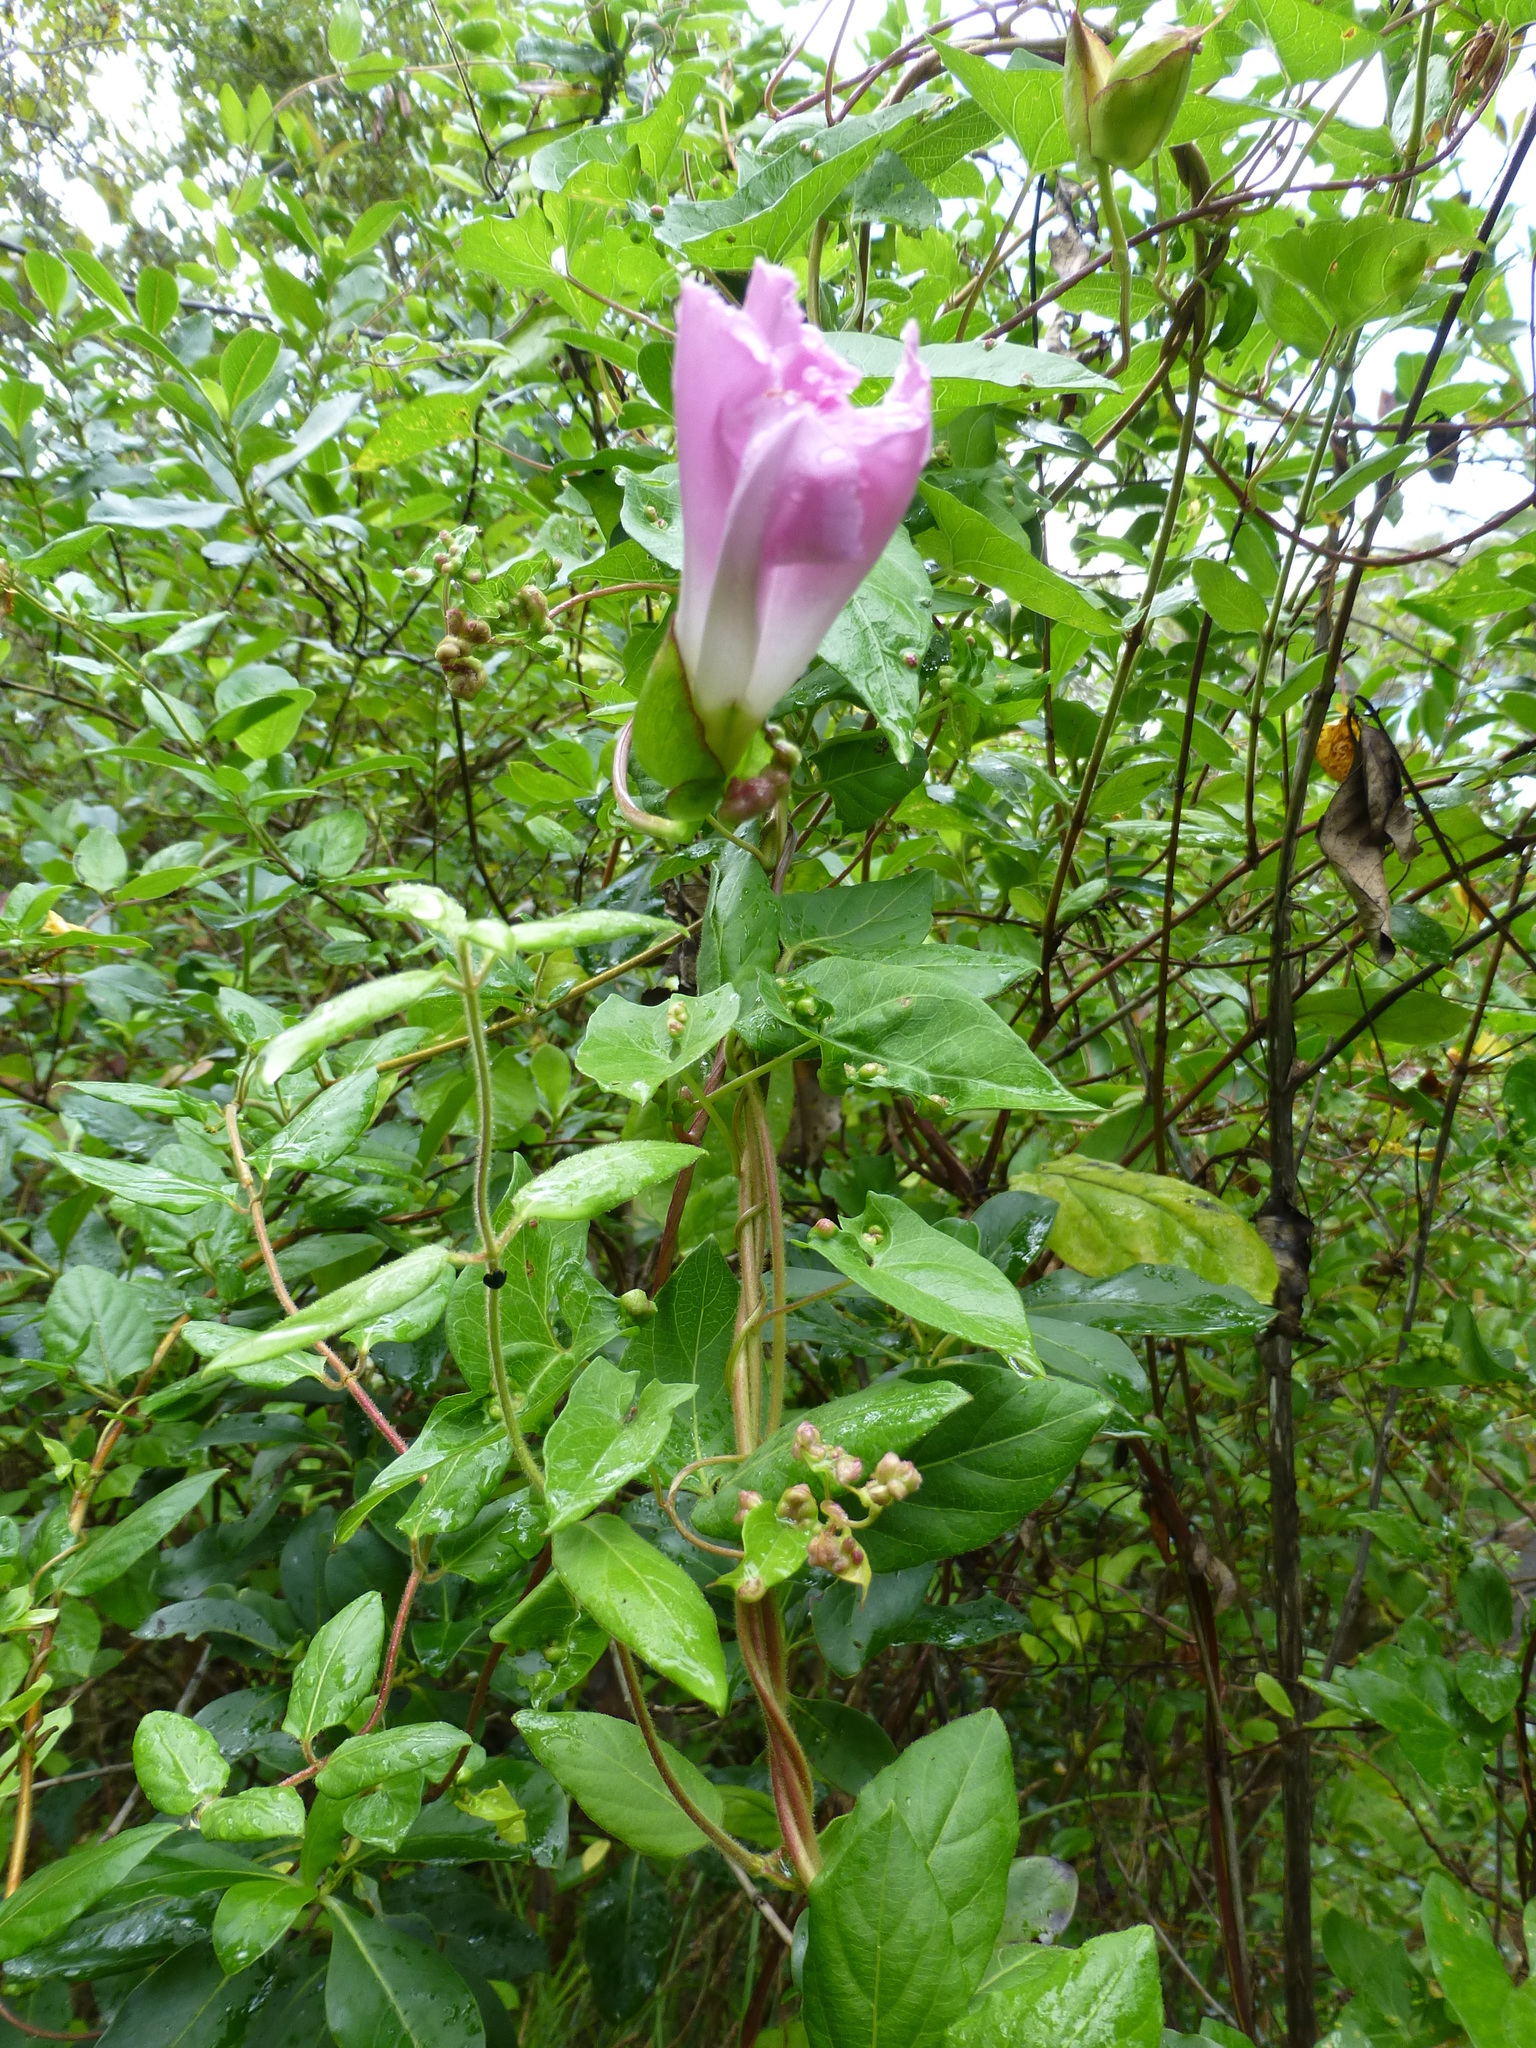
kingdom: Plantae
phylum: Tracheophyta
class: Magnoliopsida
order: Solanales
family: Convolvulaceae
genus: Calystegia
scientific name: Calystegia sepium
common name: Hedge bindweed
